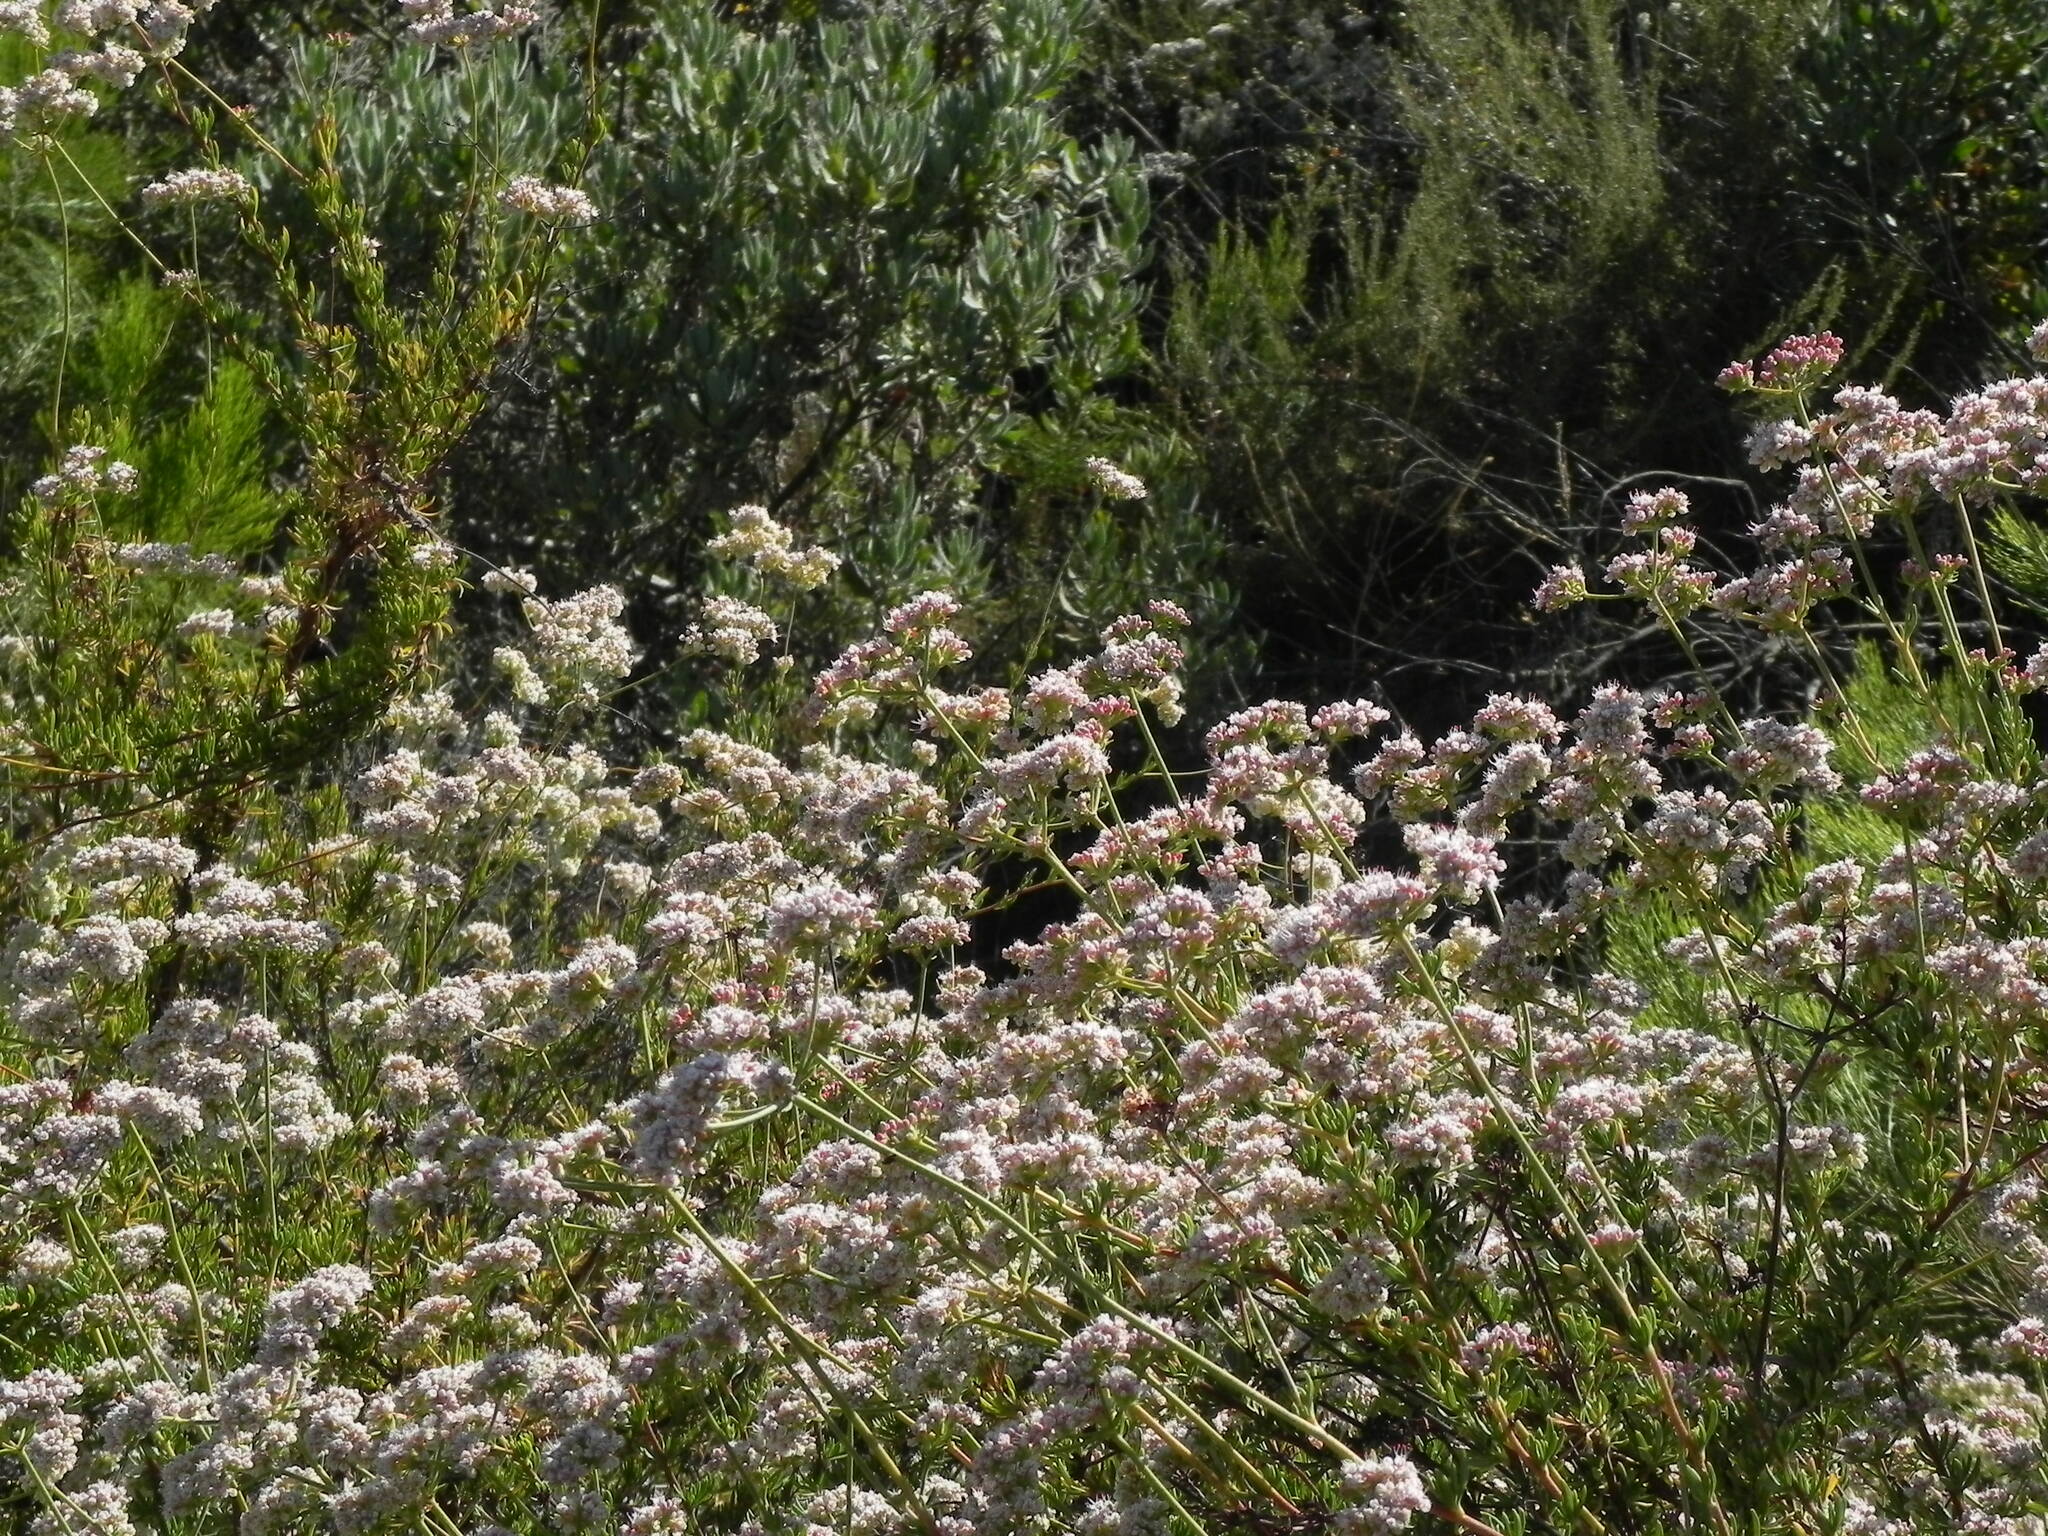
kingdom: Plantae
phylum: Tracheophyta
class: Magnoliopsida
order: Caryophyllales
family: Polygonaceae
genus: Eriogonum
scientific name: Eriogonum fasciculatum
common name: California wild buckwheat
